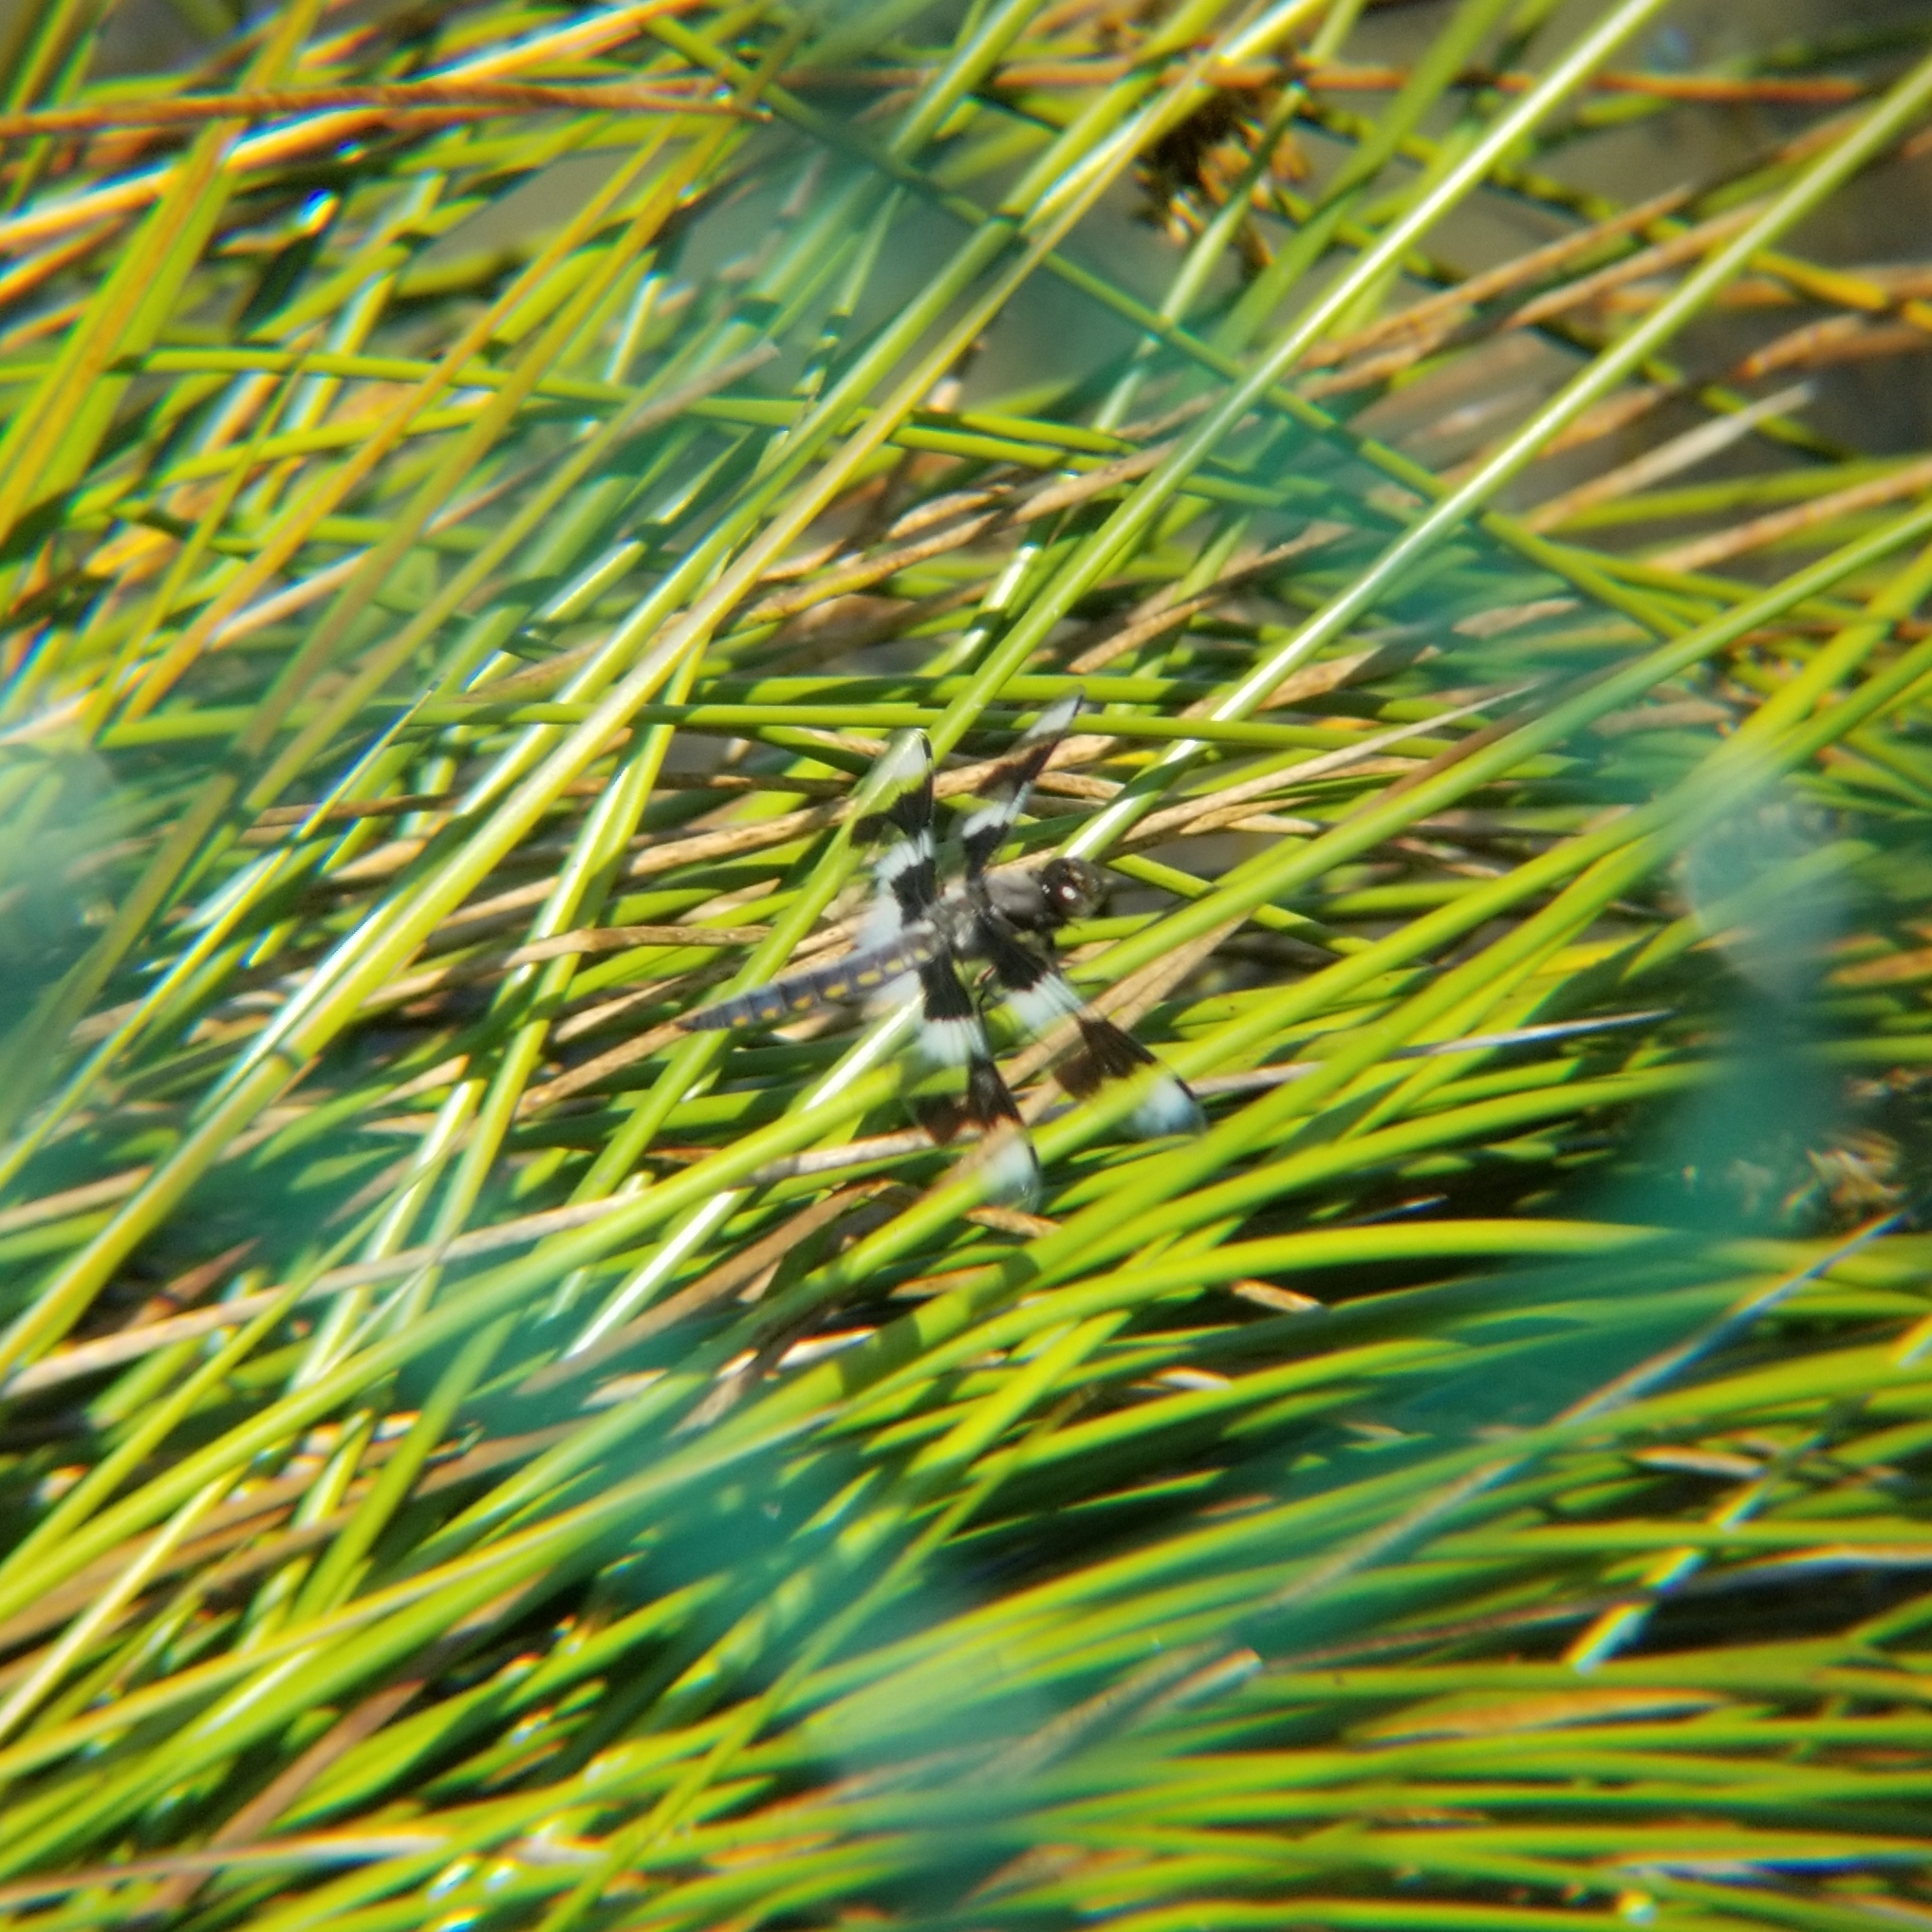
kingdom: Animalia
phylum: Arthropoda
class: Insecta
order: Odonata
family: Libellulidae
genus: Libellula
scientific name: Libellula forensis
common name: Eight-spotted skimmer
